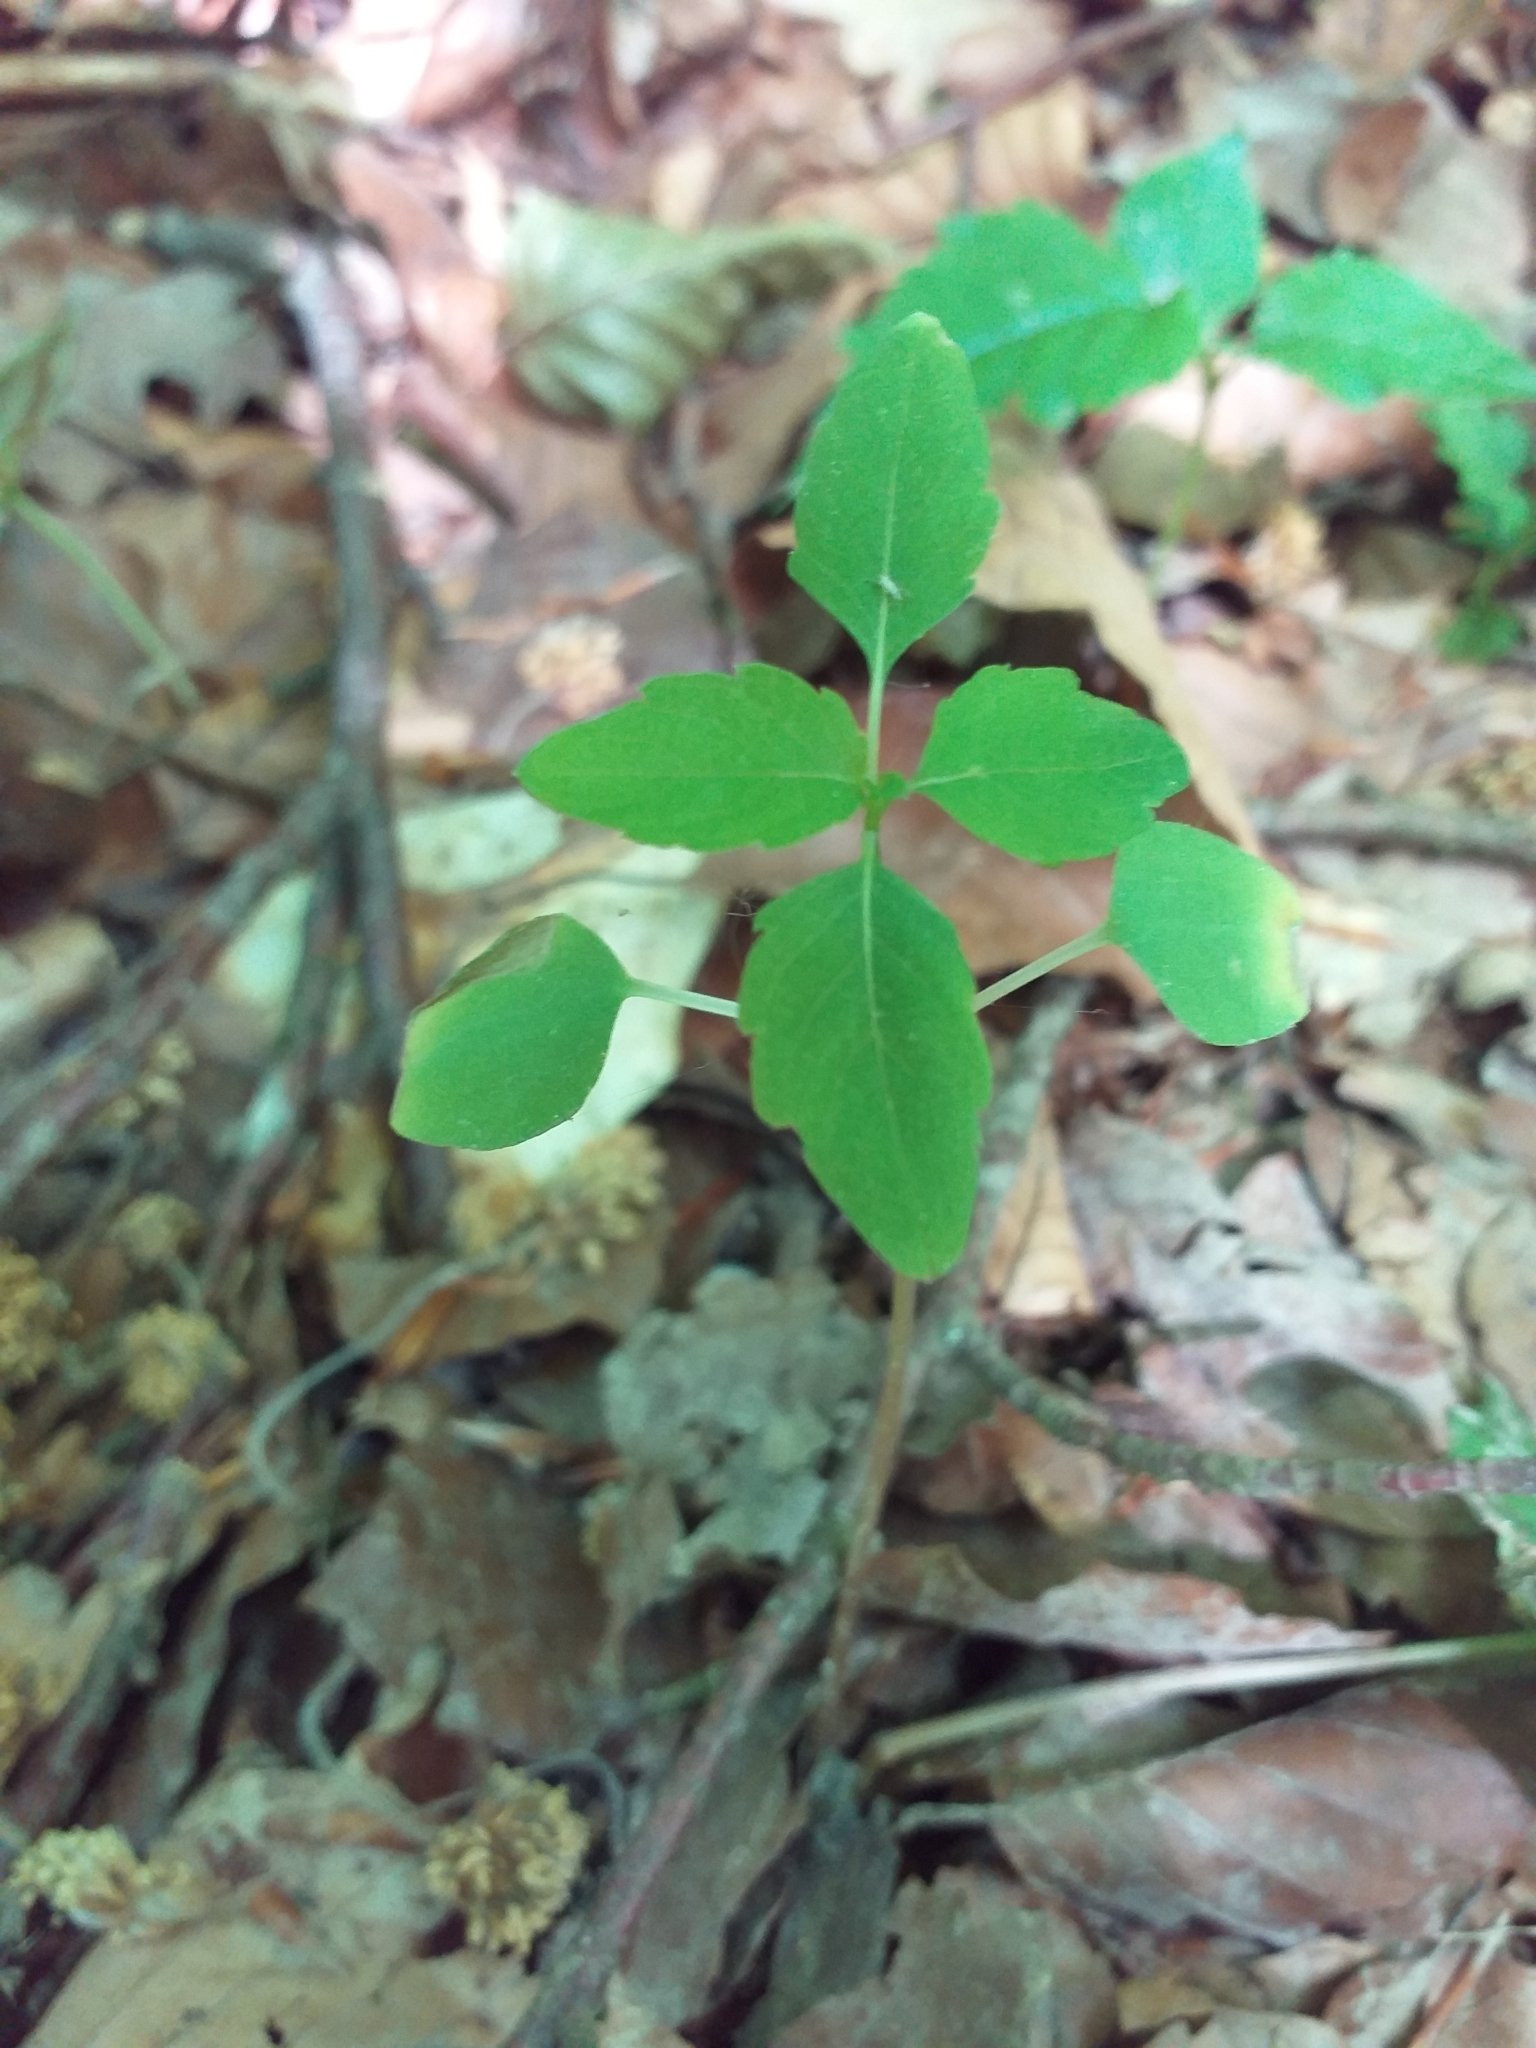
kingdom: Plantae
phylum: Tracheophyta
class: Magnoliopsida
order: Ericales
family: Balsaminaceae
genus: Impatiens
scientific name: Impatiens noli-tangere
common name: Touch-me-not balsam
